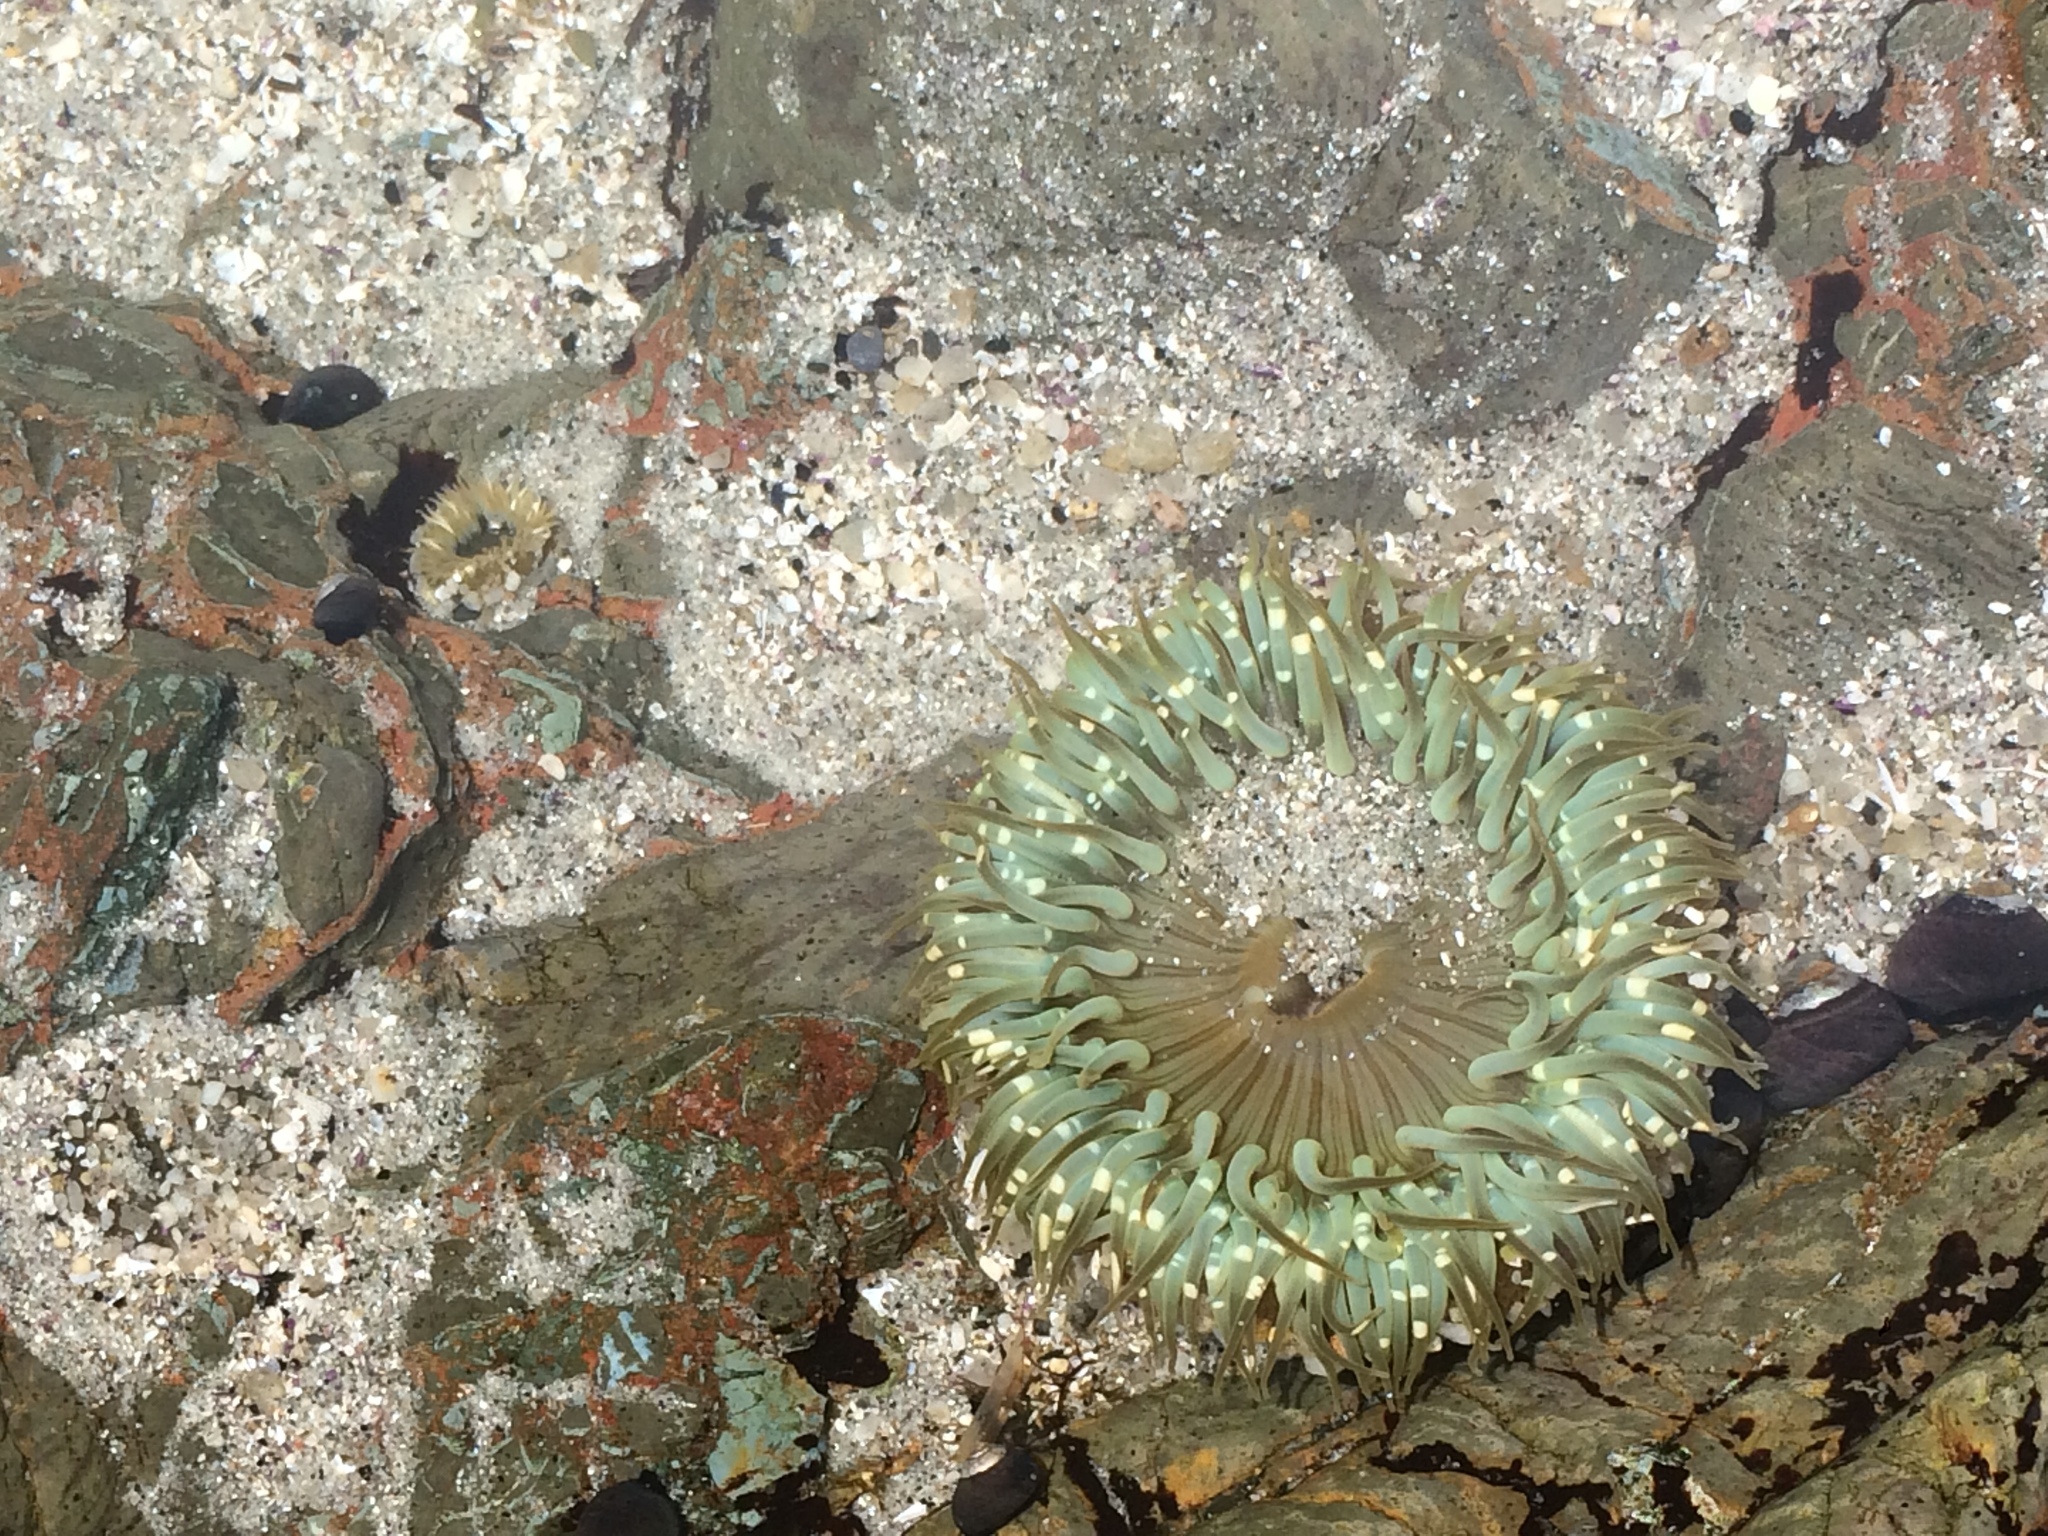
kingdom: Animalia
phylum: Cnidaria
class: Anthozoa
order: Actiniaria
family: Actiniidae
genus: Anthopleura
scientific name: Anthopleura sola
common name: Sun anemone
